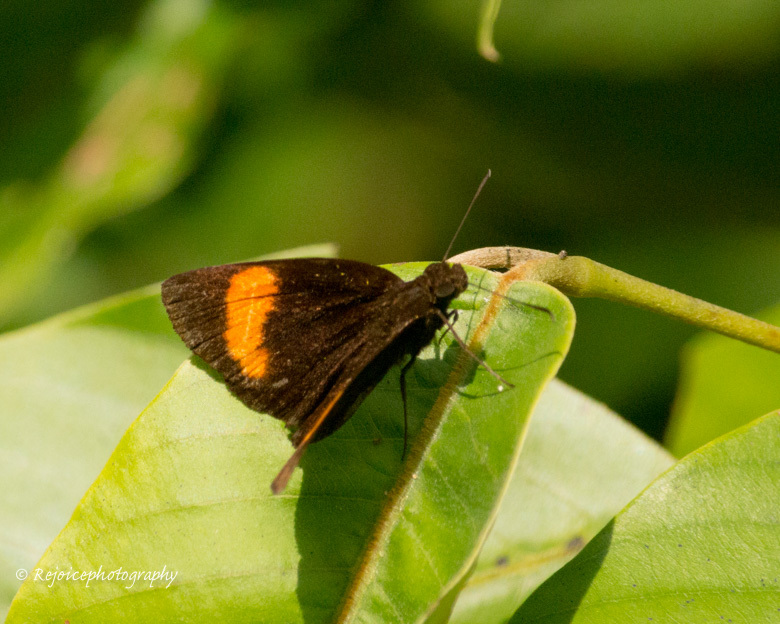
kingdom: Animalia
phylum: Arthropoda
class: Insecta
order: Lepidoptera
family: Hesperiidae
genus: Koruthaialos
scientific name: Koruthaialos rubecula
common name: Narrow-banded velvet bob
